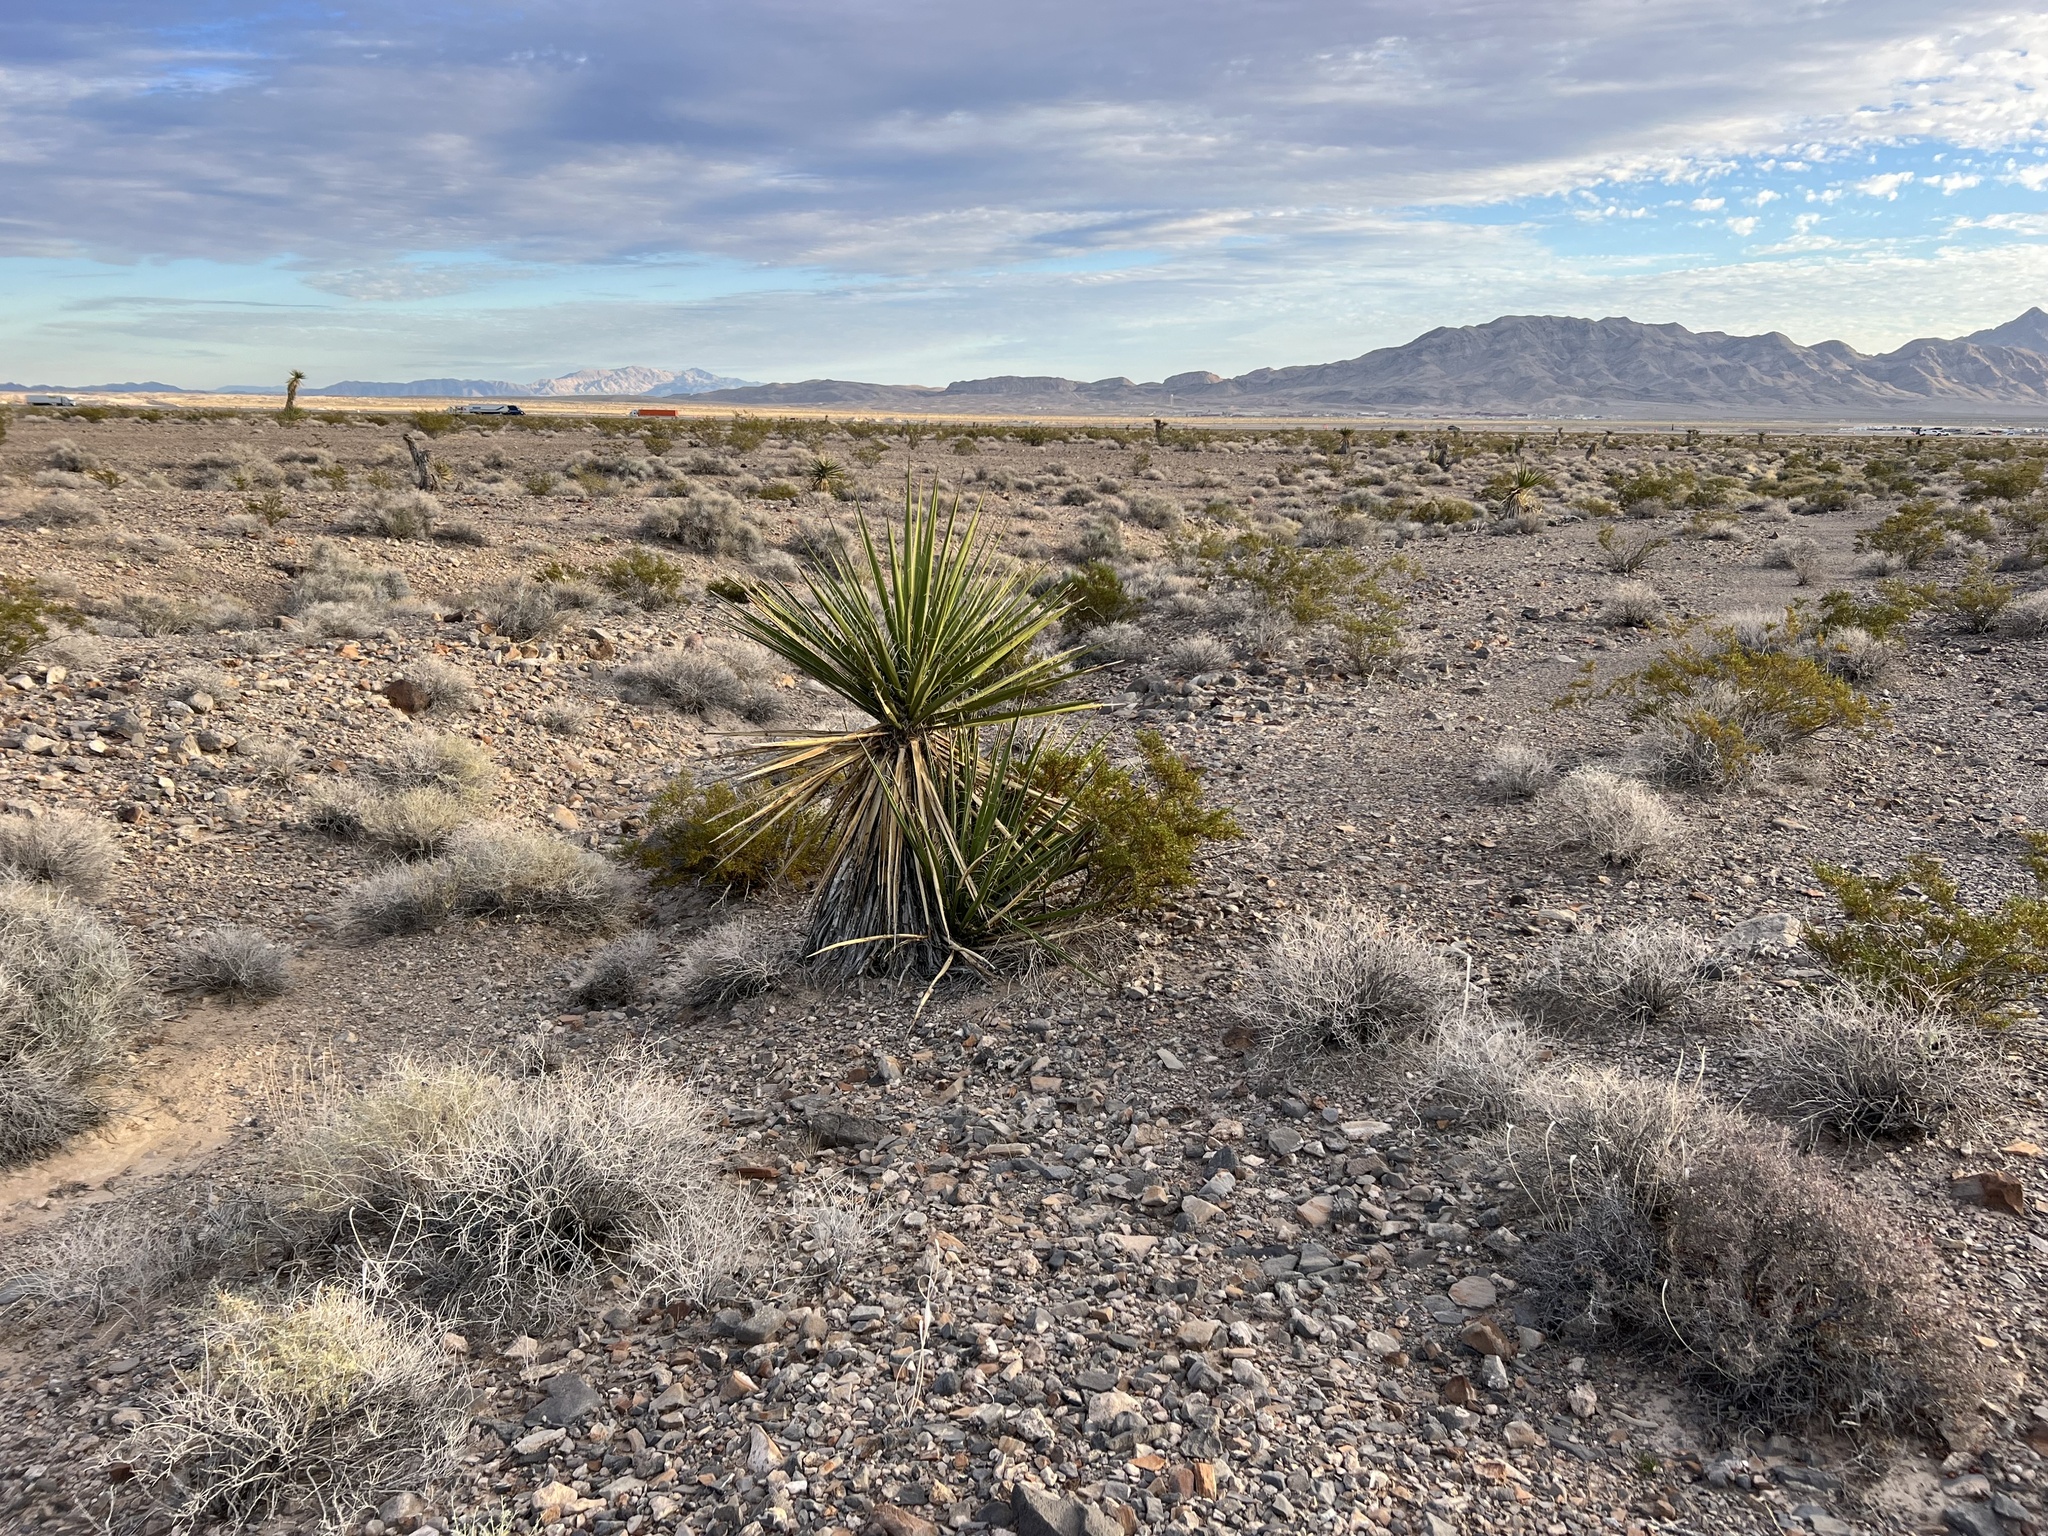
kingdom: Plantae
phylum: Tracheophyta
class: Liliopsida
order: Asparagales
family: Asparagaceae
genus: Yucca
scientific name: Yucca schidigera
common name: Mojave yucca
